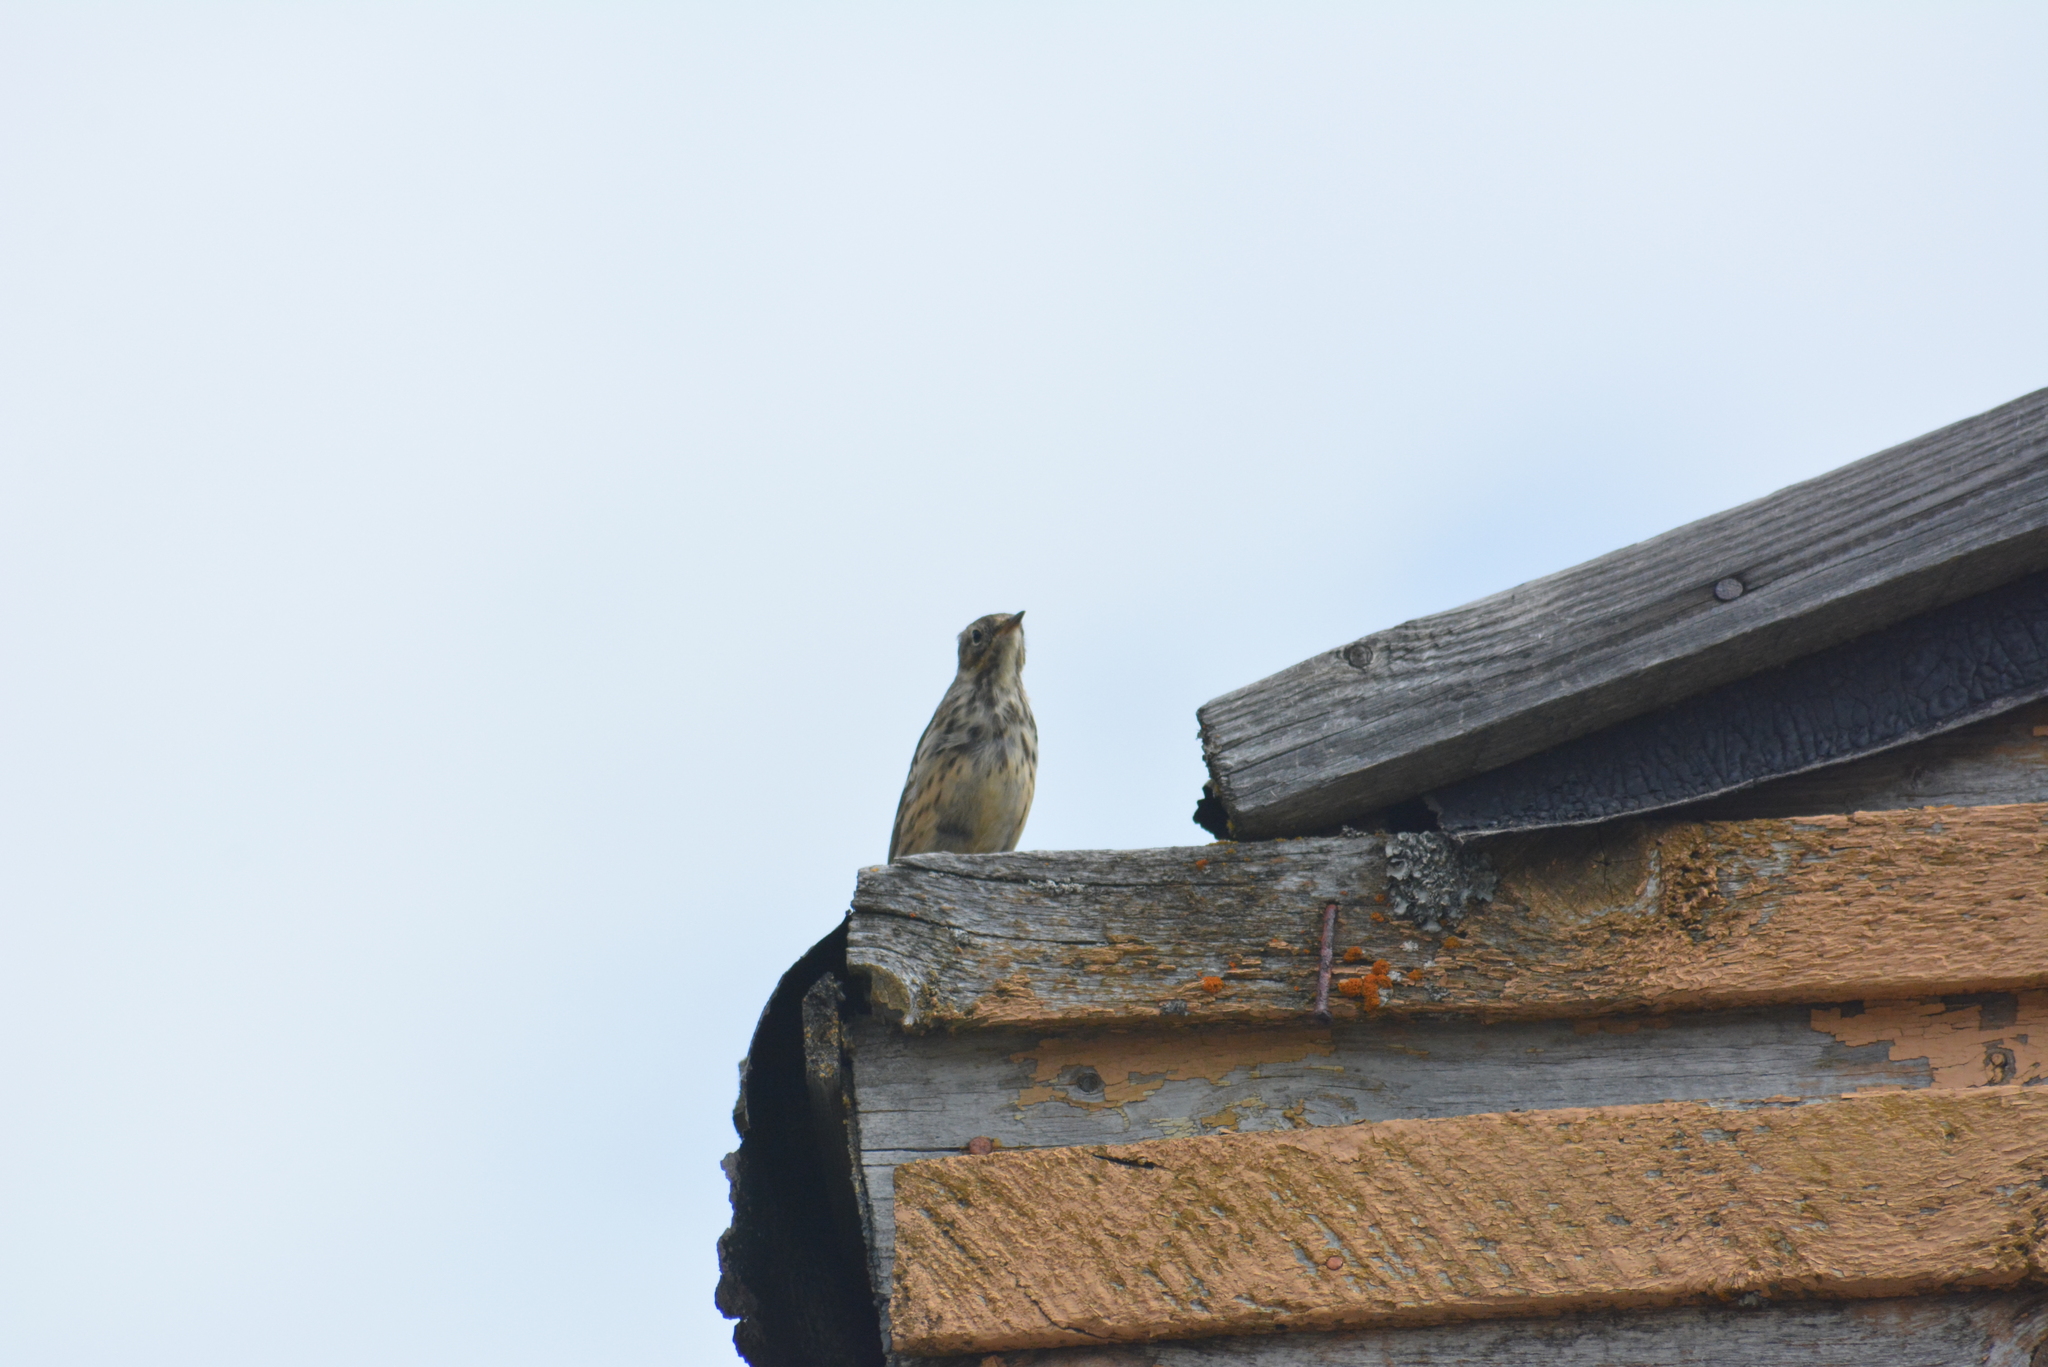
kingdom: Animalia
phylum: Chordata
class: Aves
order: Passeriformes
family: Motacillidae
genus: Anthus
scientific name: Anthus rubescens
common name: Buff-bellied pipit
